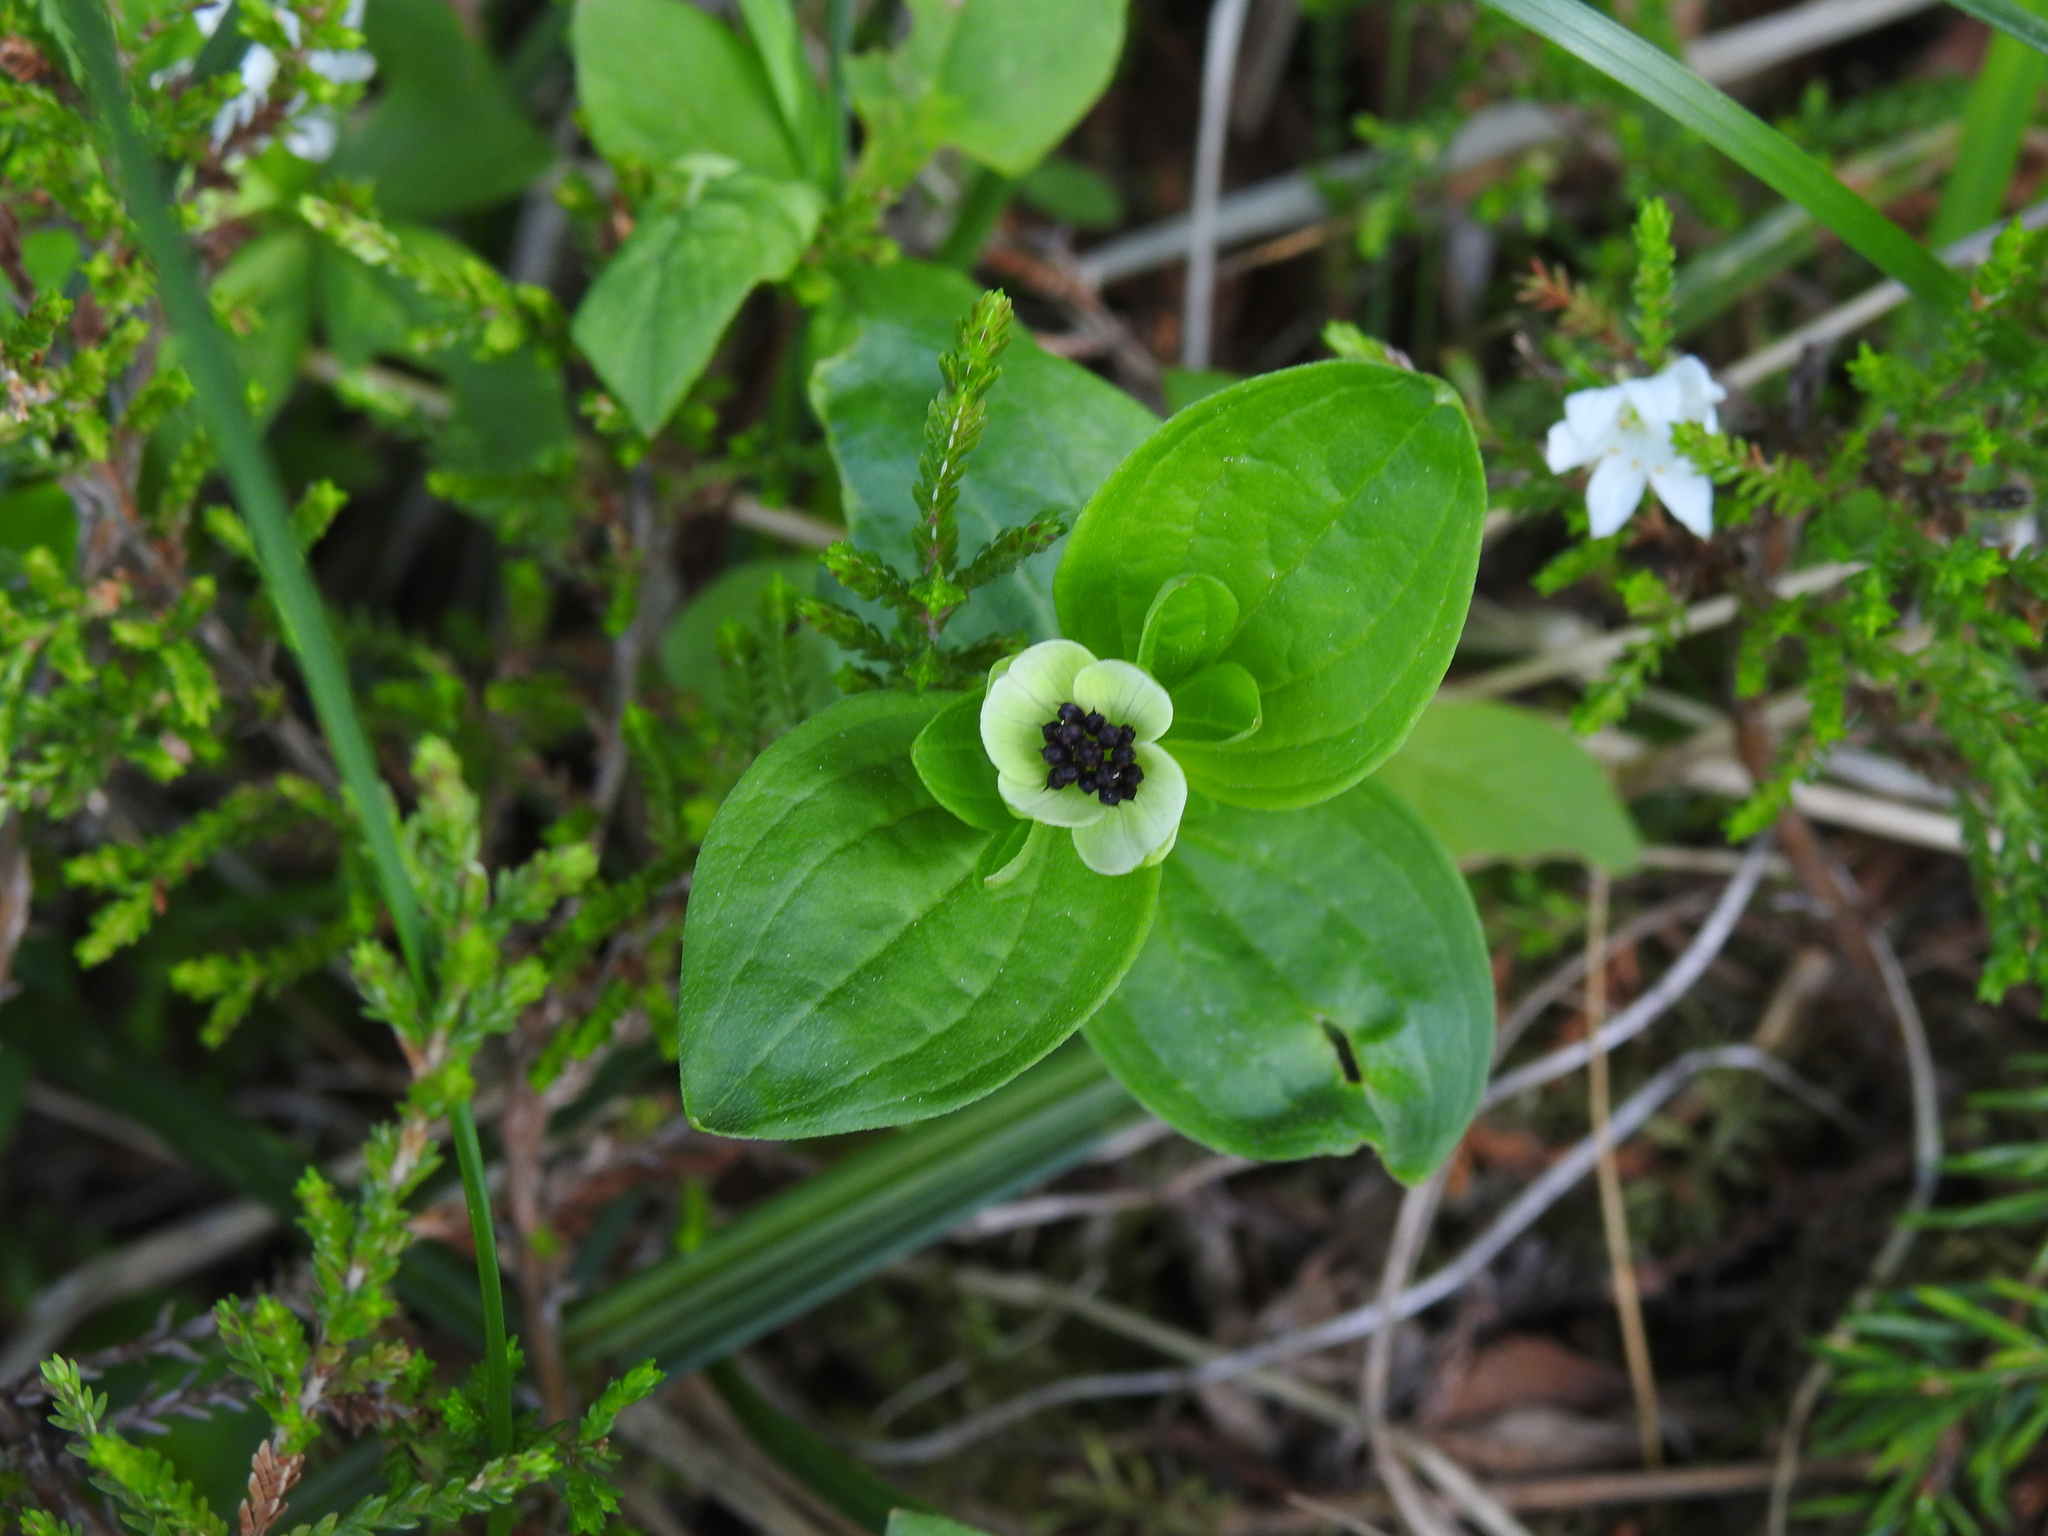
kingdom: Plantae
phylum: Tracheophyta
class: Magnoliopsida
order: Cornales
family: Cornaceae
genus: Cornus
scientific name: Cornus suecica
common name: Dwarf cornel
